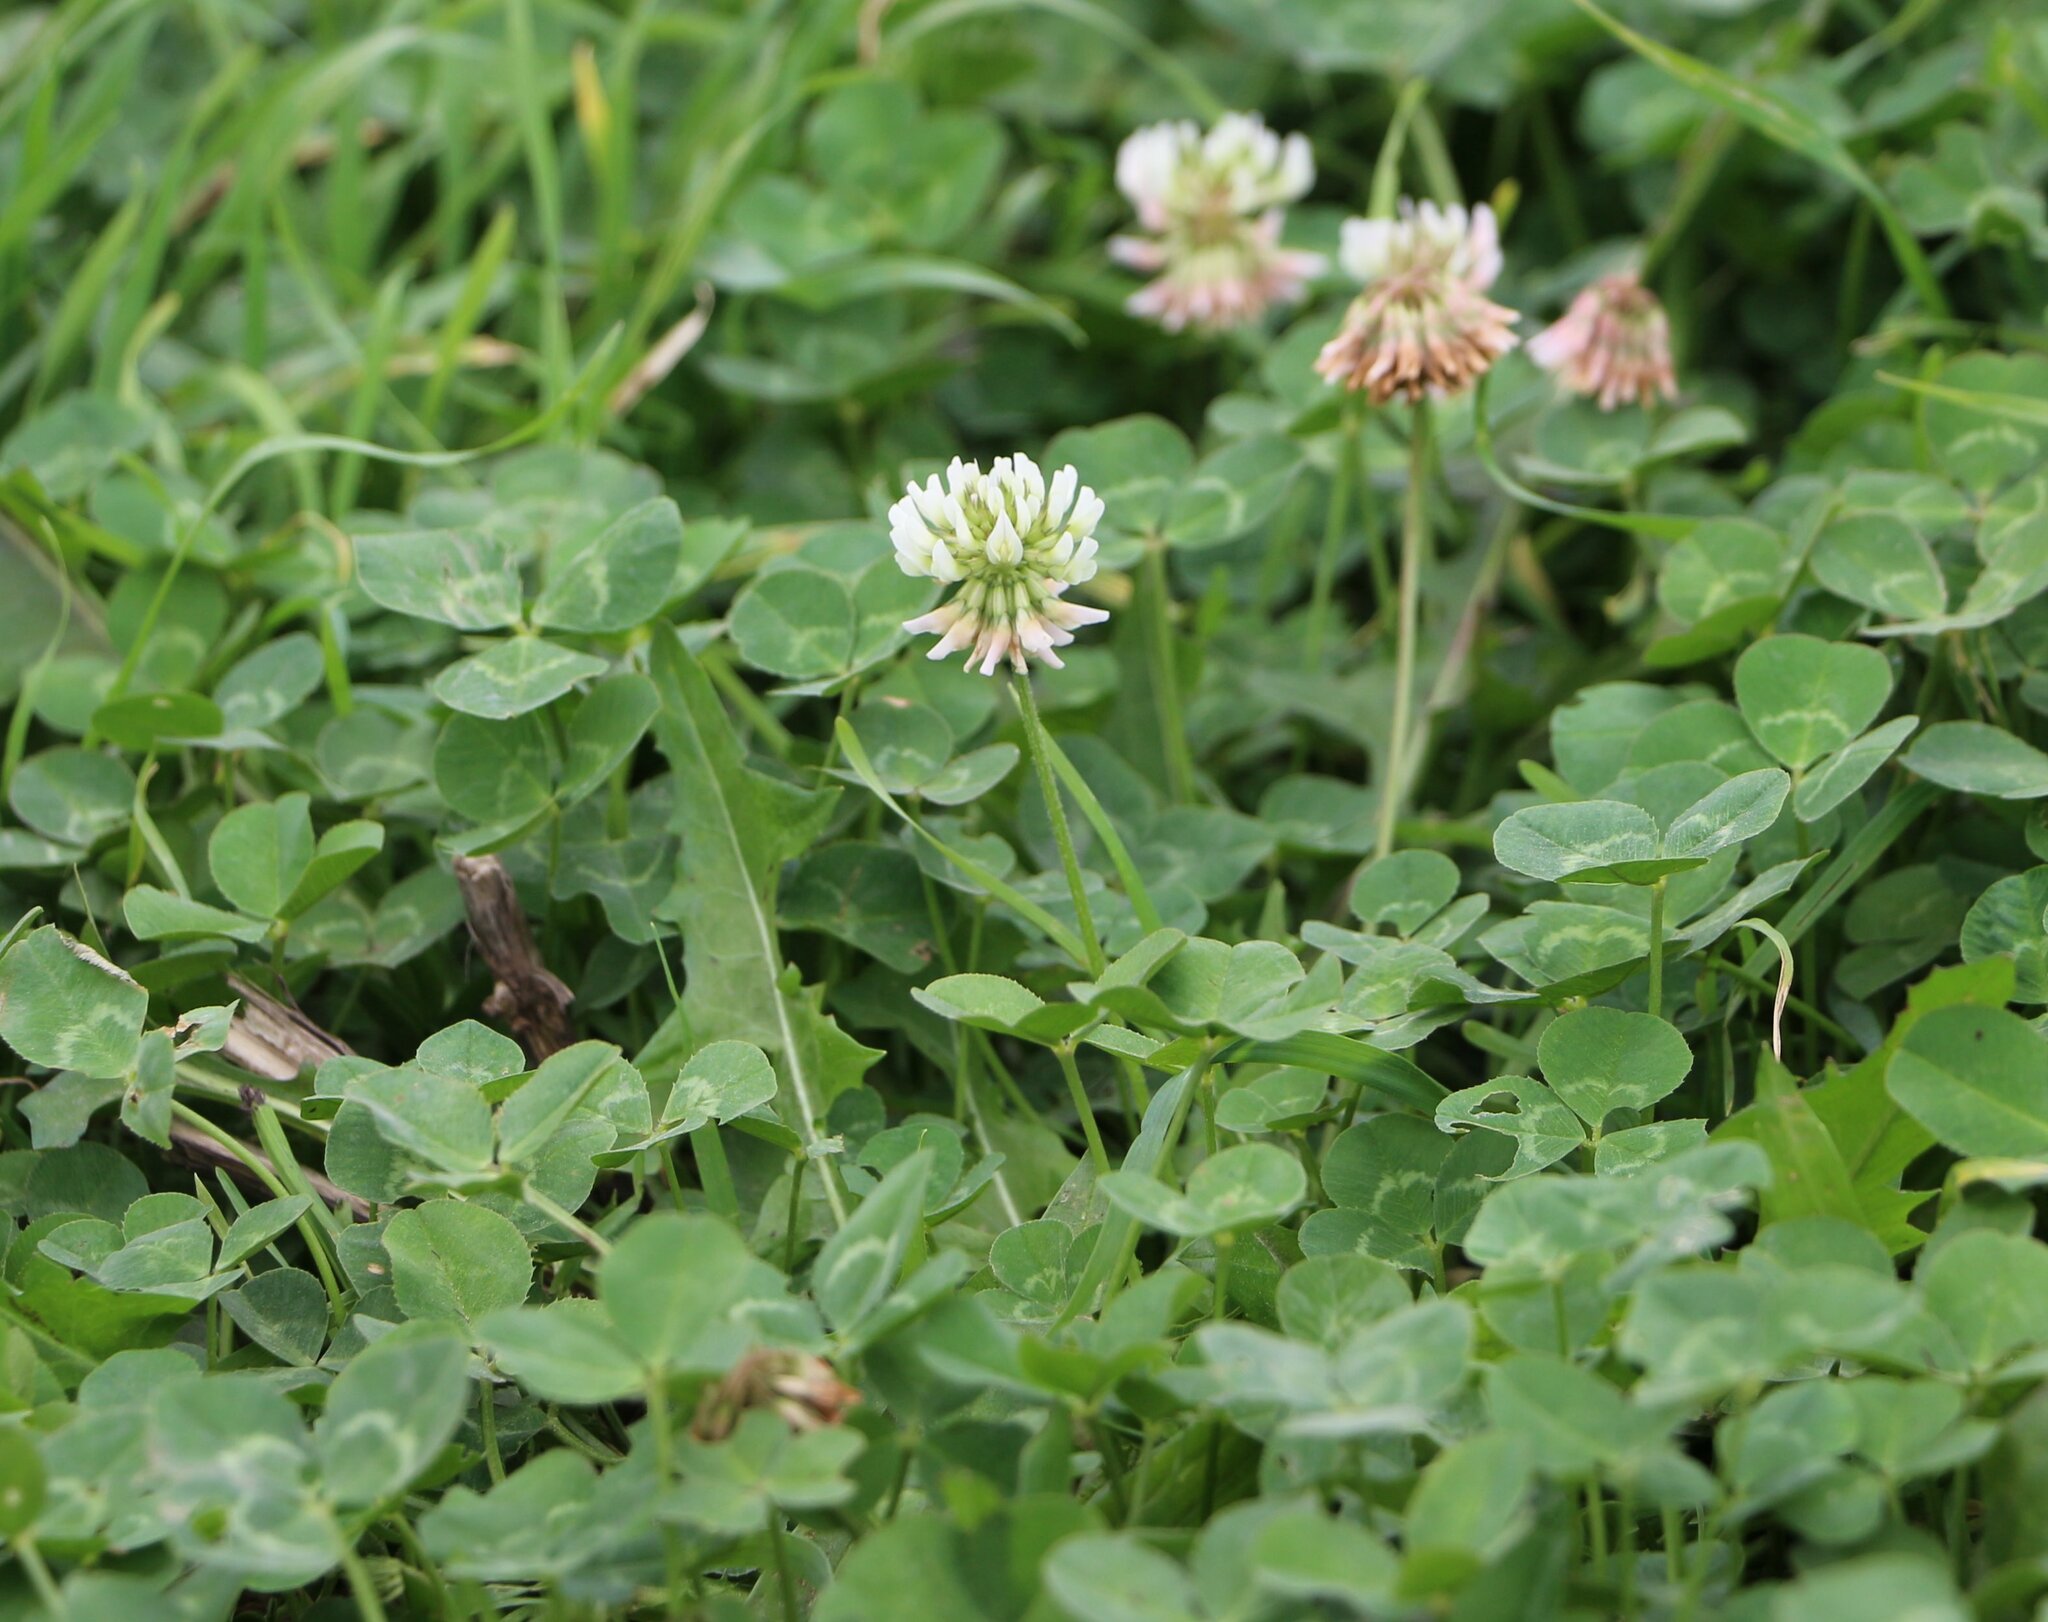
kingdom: Plantae
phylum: Tracheophyta
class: Magnoliopsida
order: Fabales
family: Fabaceae
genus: Trifolium
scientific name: Trifolium repens
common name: White clover
